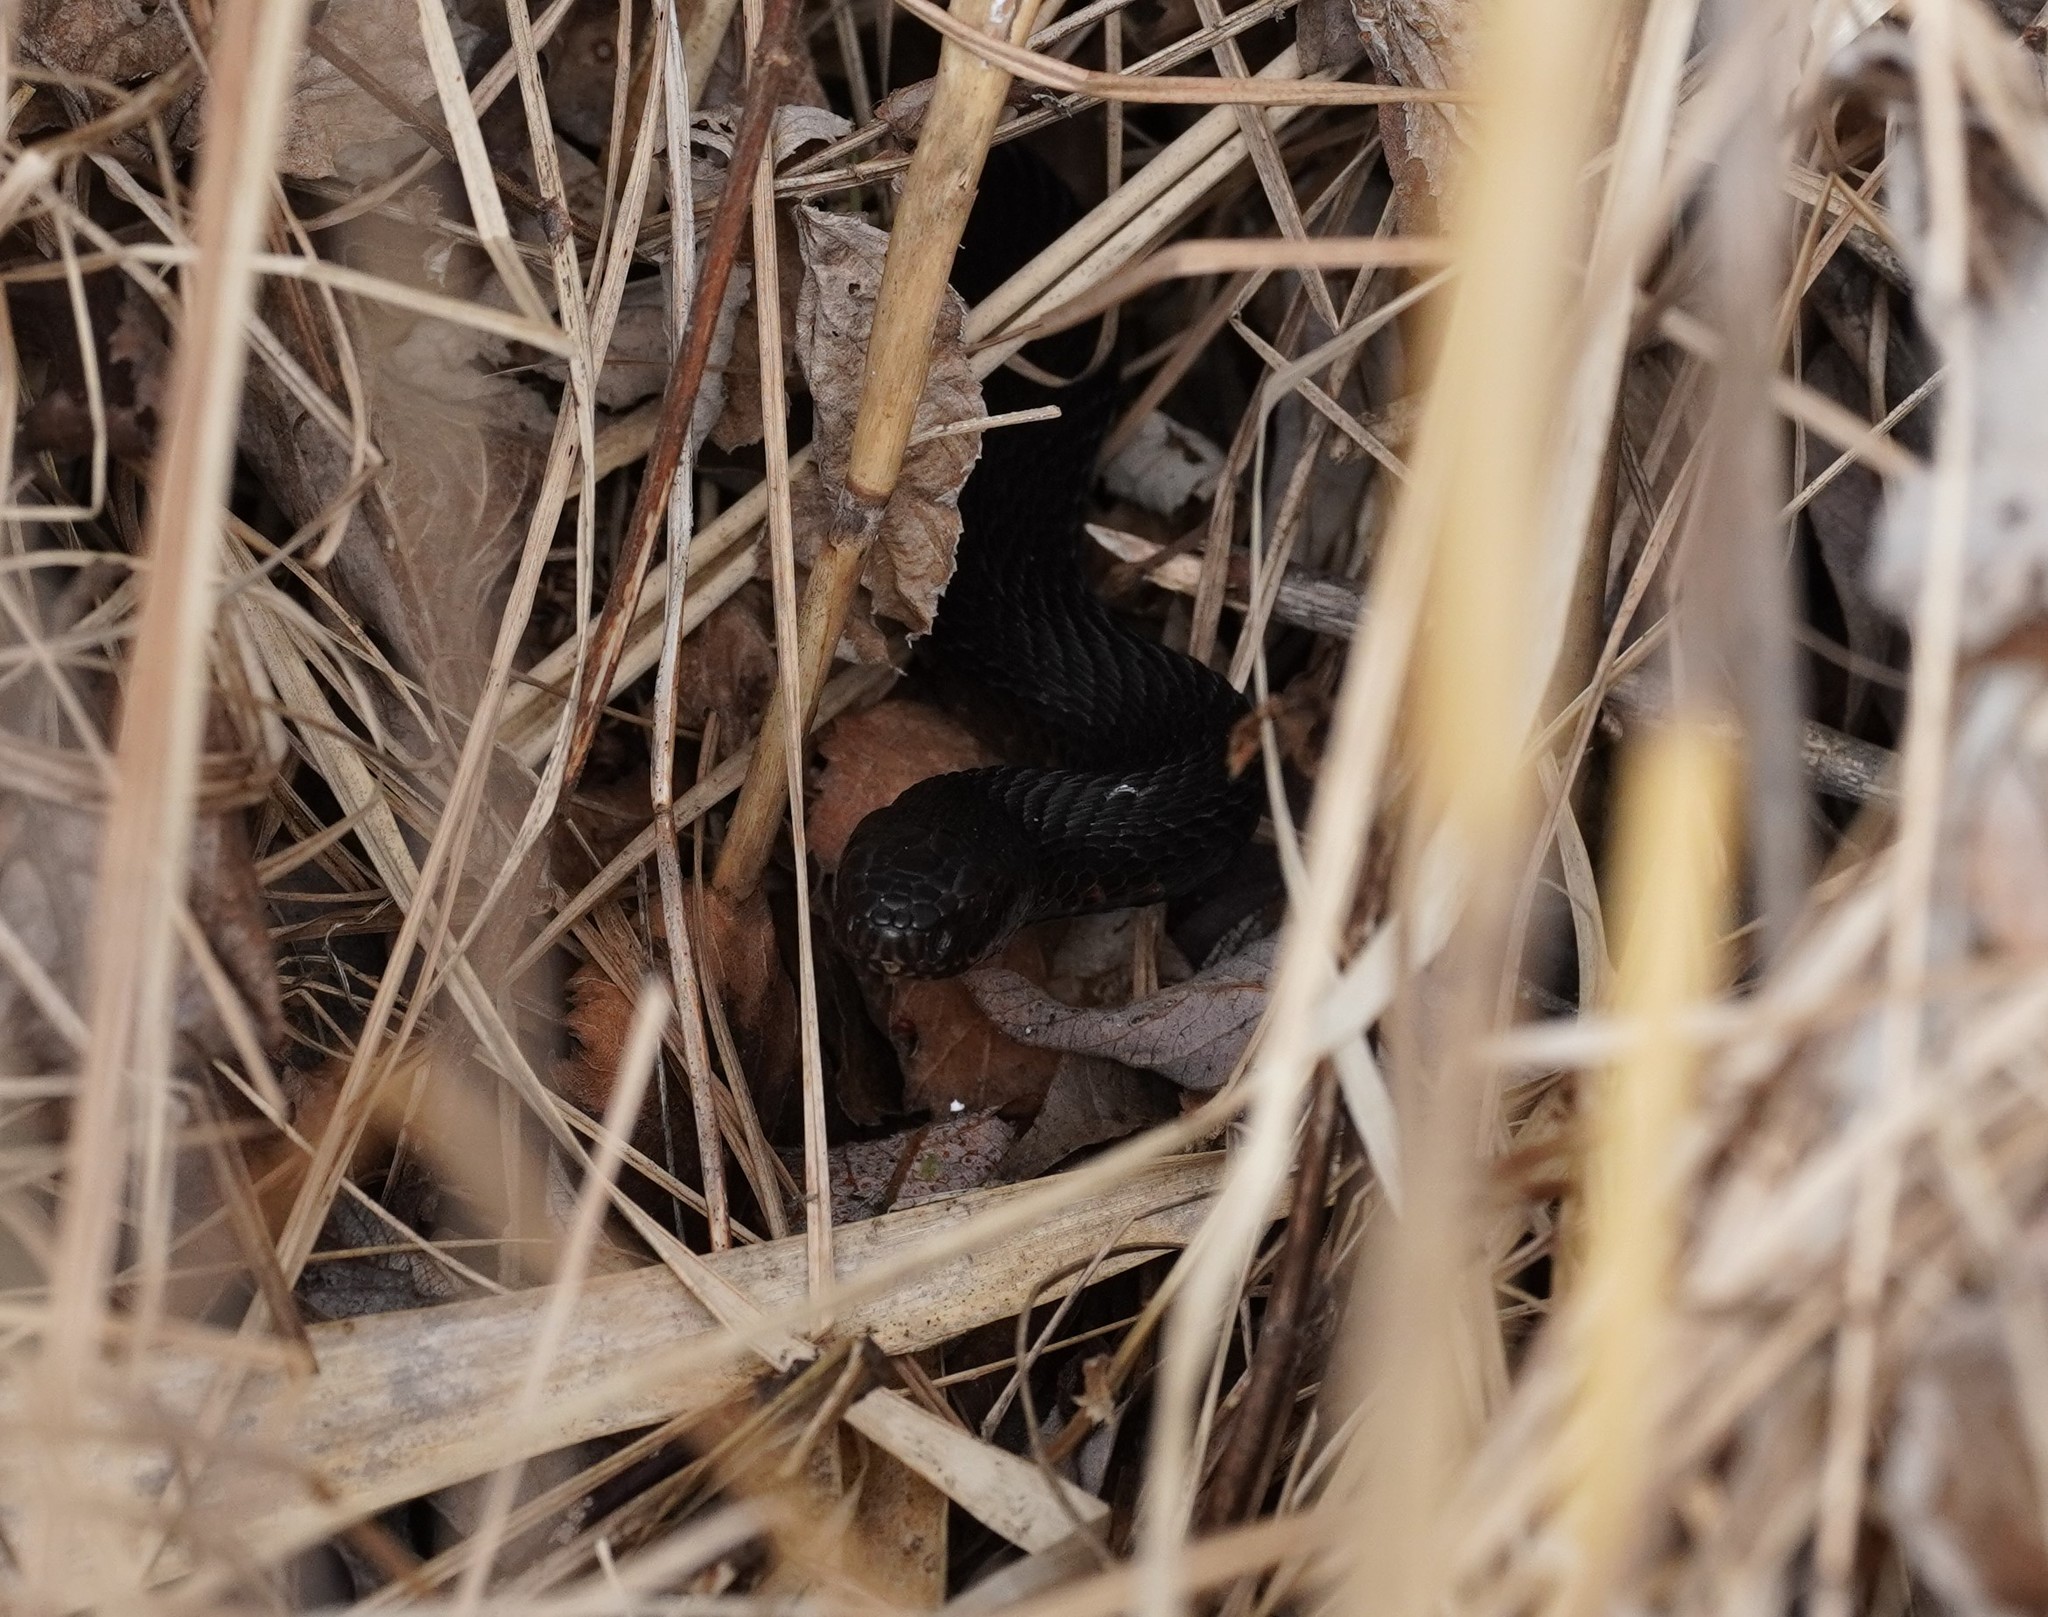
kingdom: Animalia
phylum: Chordata
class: Squamata
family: Viperidae
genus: Vipera
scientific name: Vipera berus
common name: Adder
